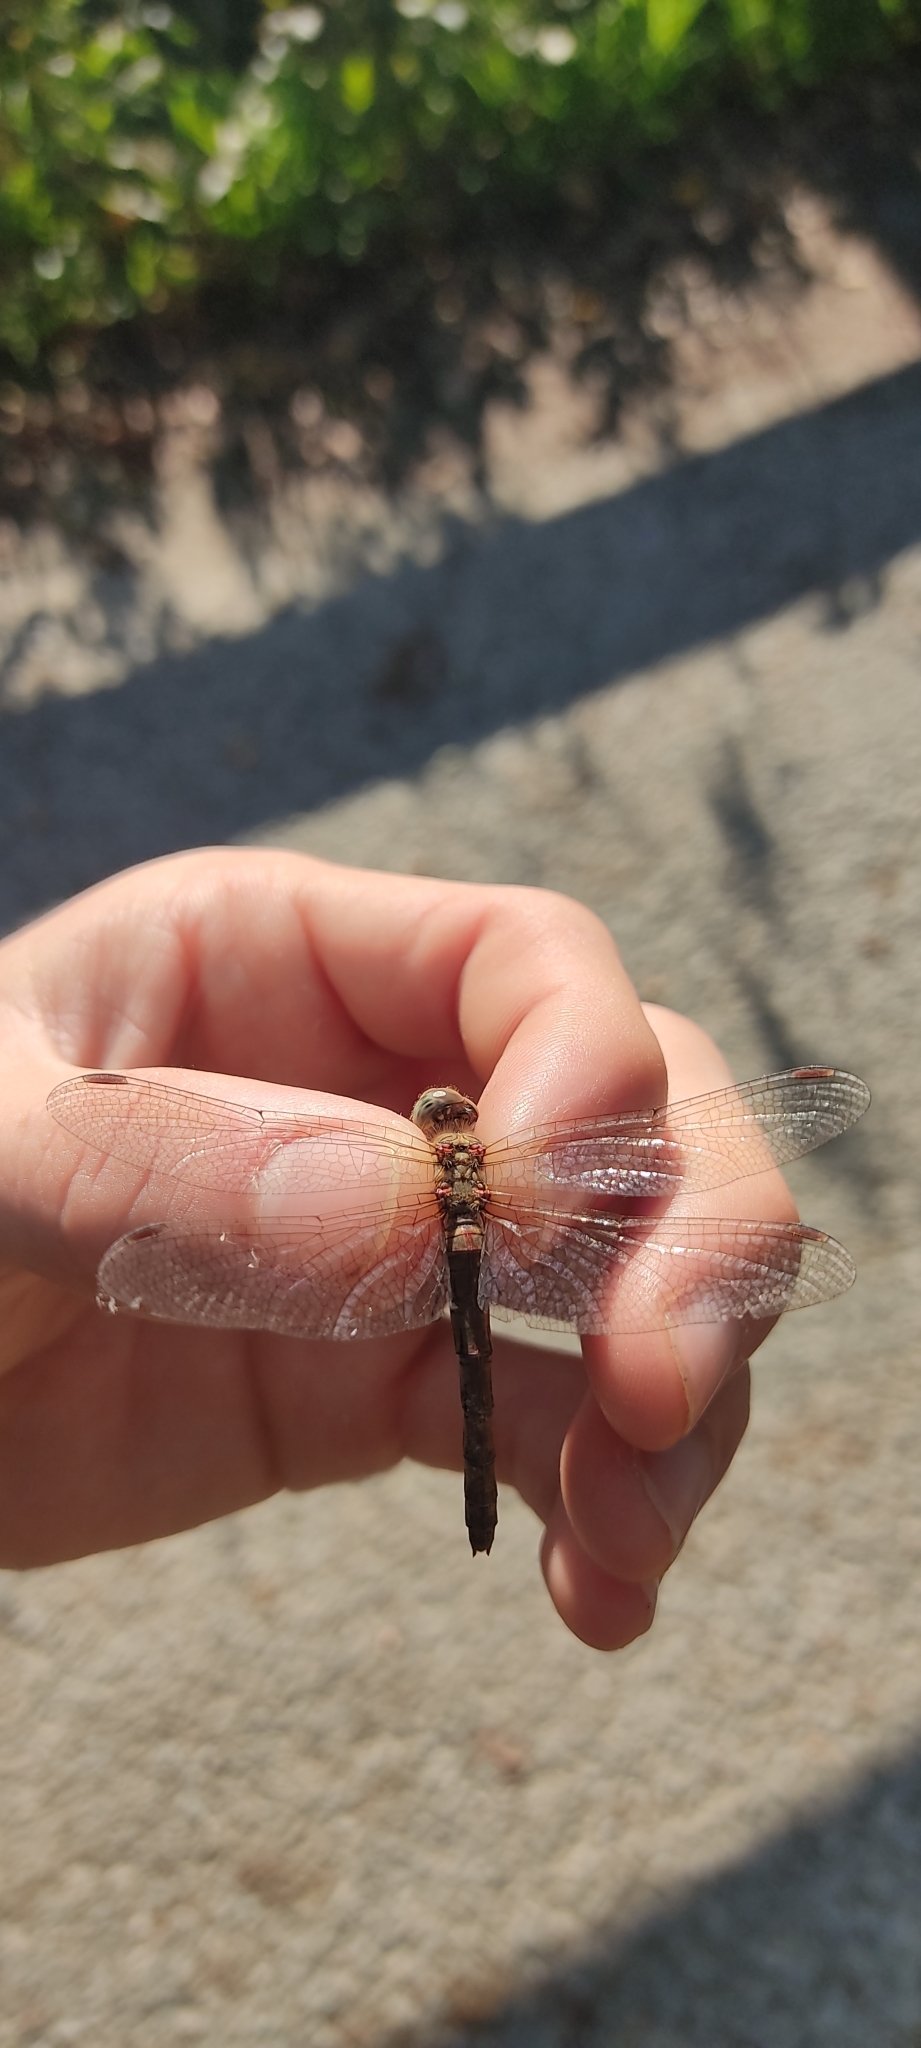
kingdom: Animalia
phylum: Arthropoda
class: Insecta
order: Odonata
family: Libellulidae
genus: Sympetrum
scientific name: Sympetrum striolatum
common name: Common darter
